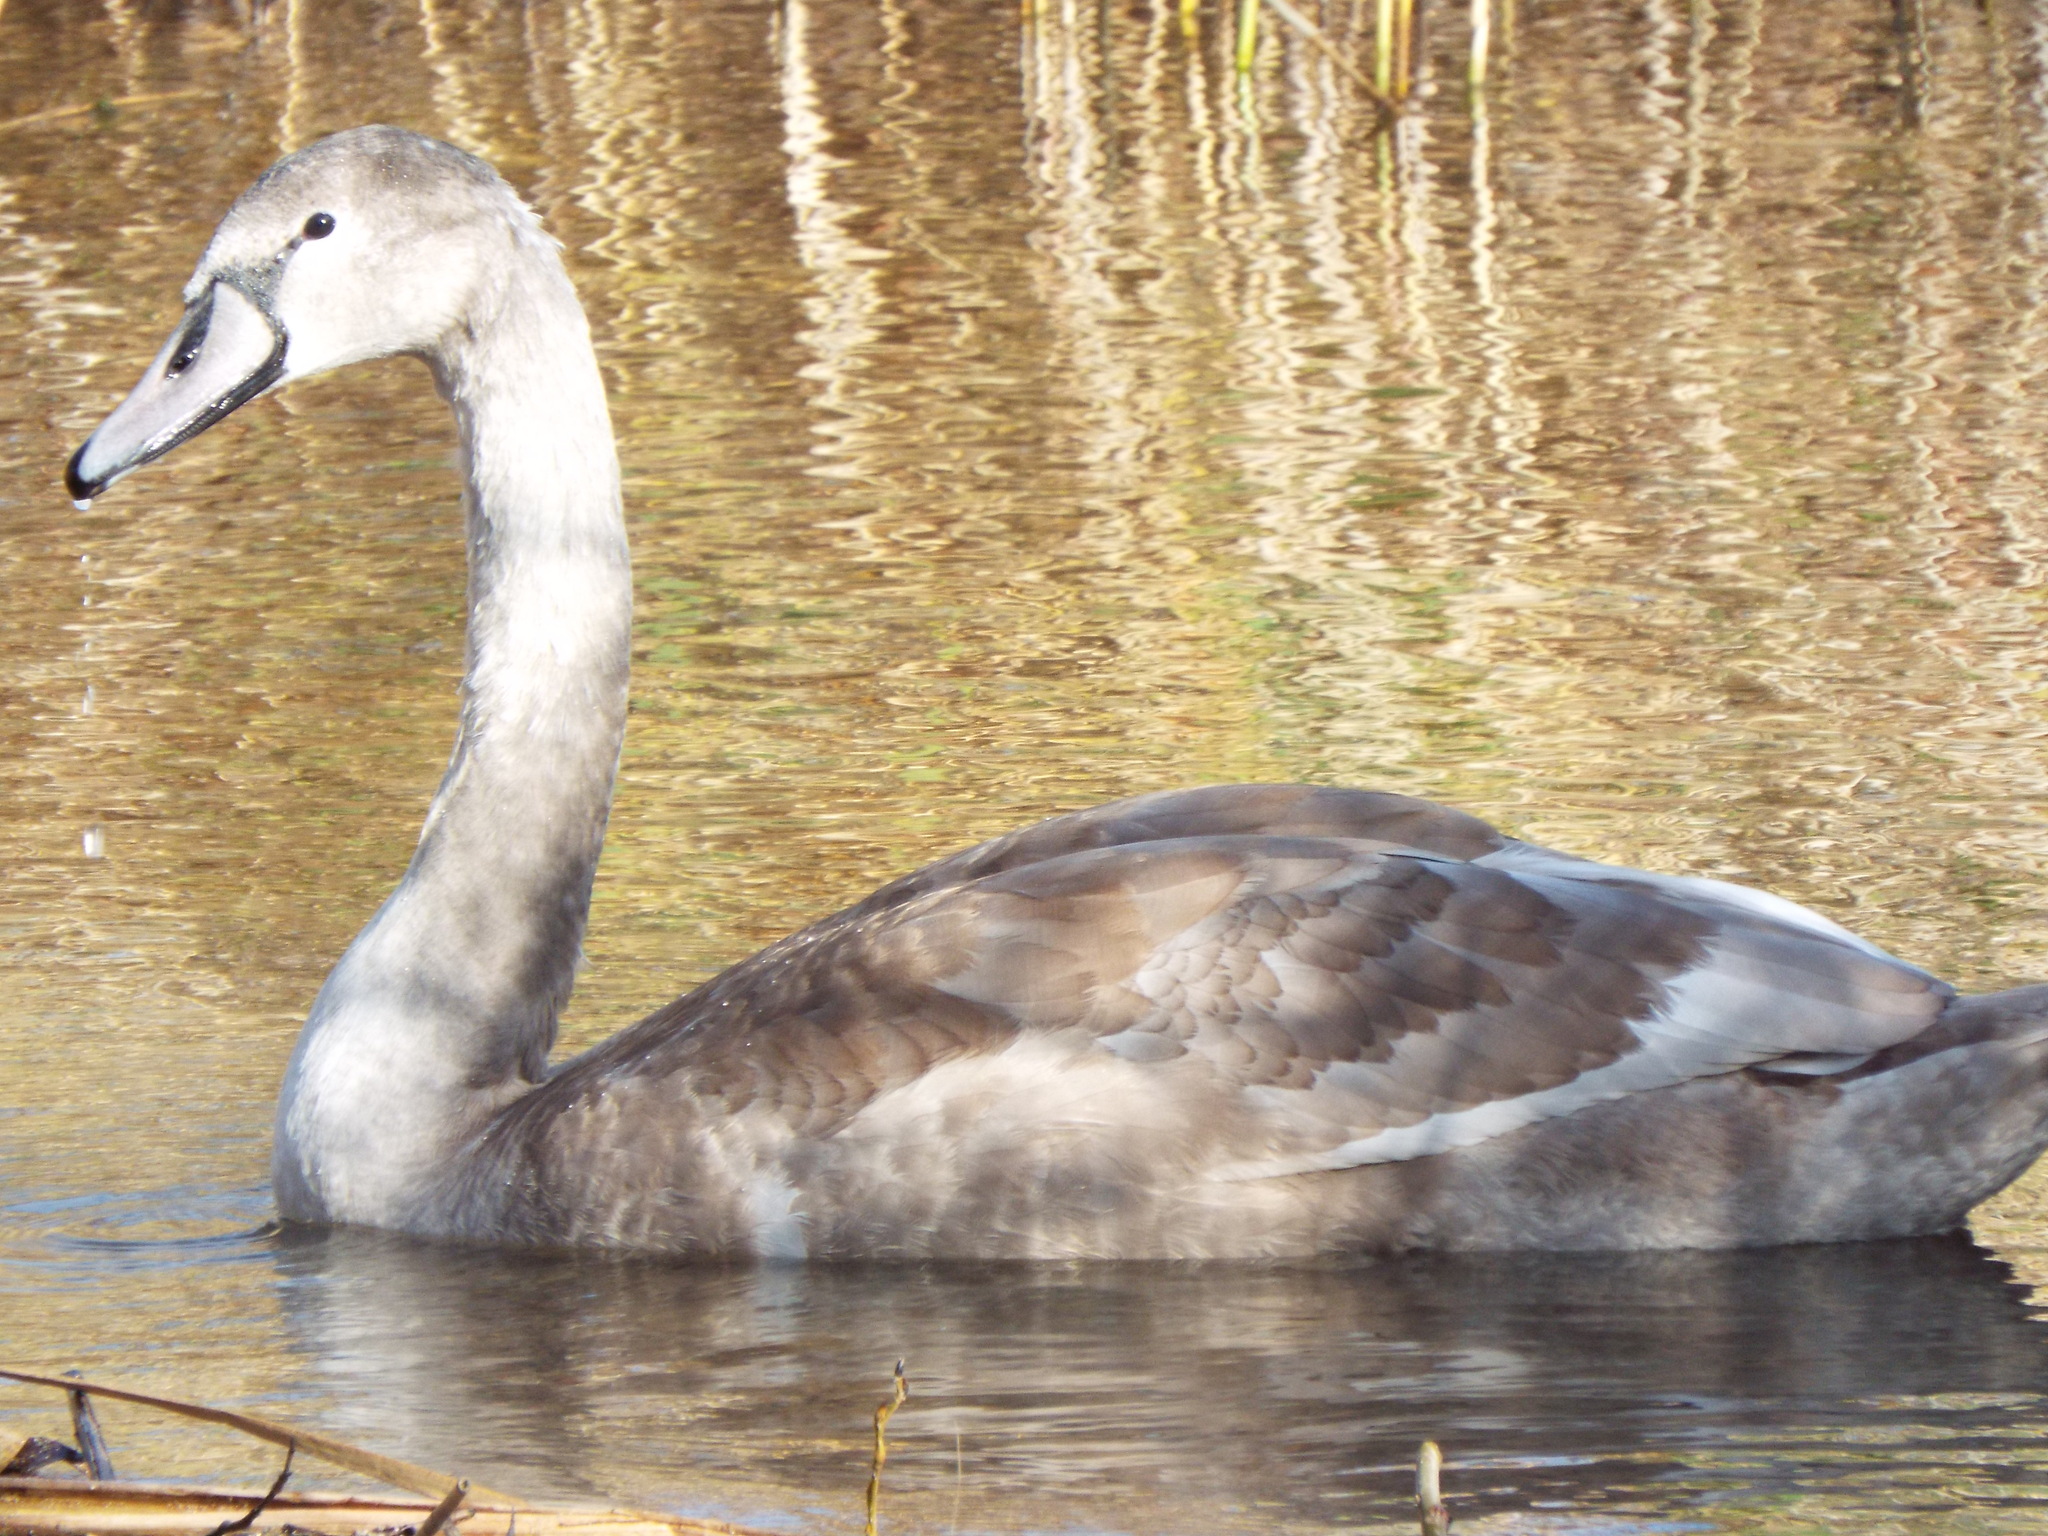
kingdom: Animalia
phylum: Chordata
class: Aves
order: Anseriformes
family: Anatidae
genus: Cygnus
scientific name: Cygnus olor
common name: Mute swan
